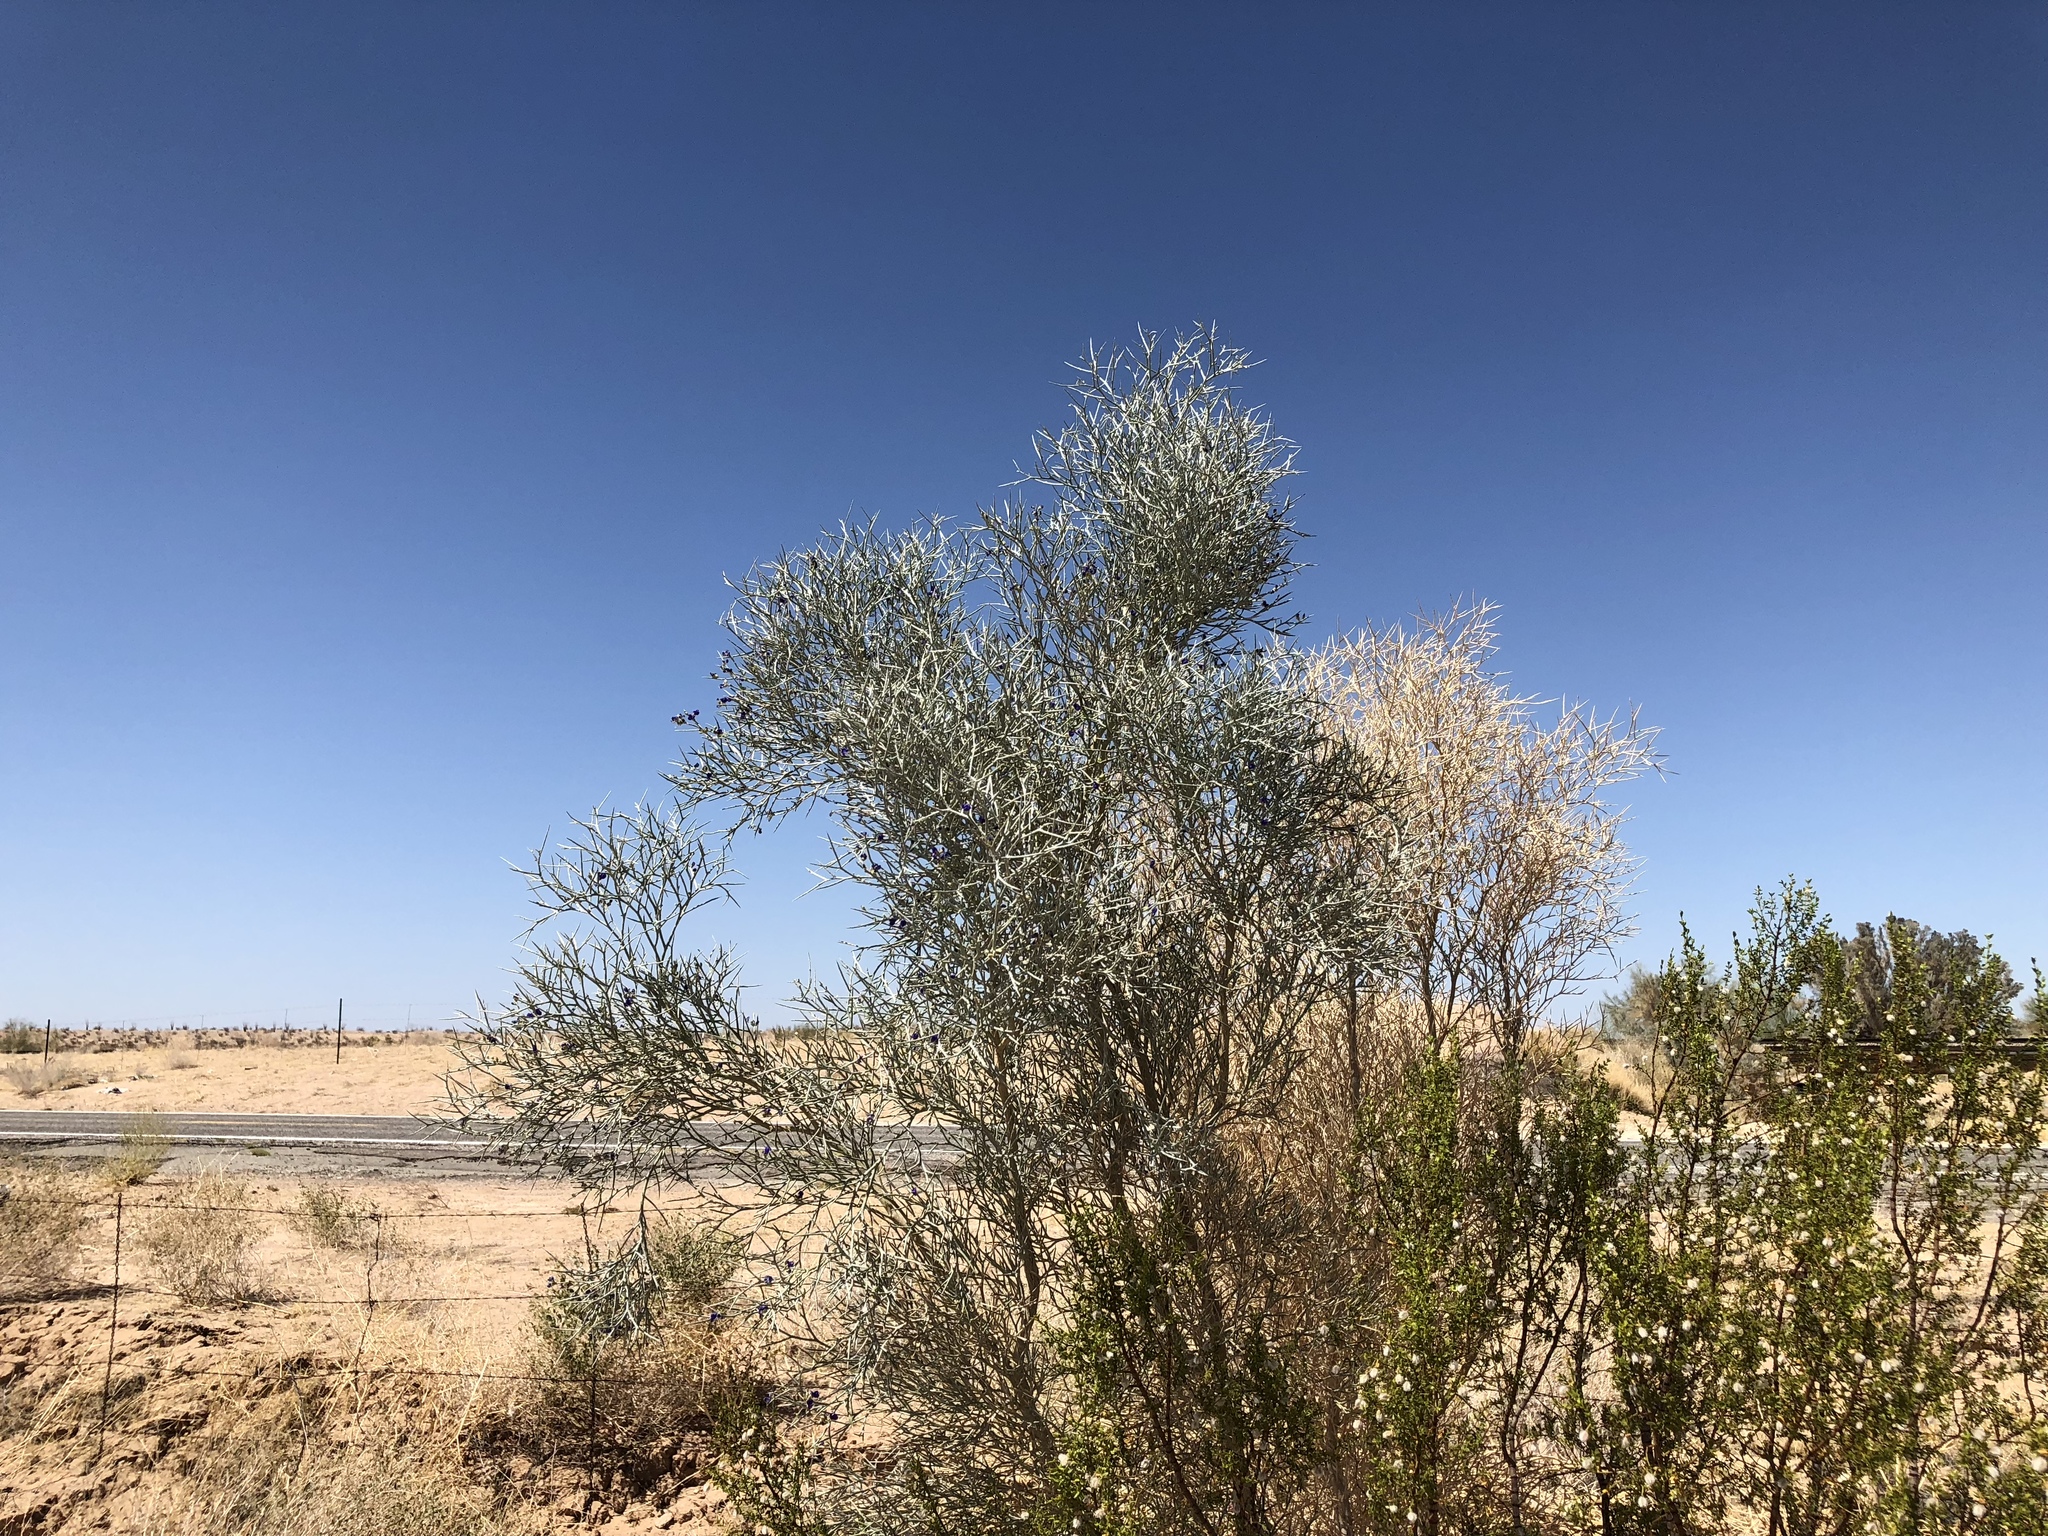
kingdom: Plantae
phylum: Tracheophyta
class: Magnoliopsida
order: Fabales
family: Fabaceae
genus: Psorothamnus
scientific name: Psorothamnus spinosus
